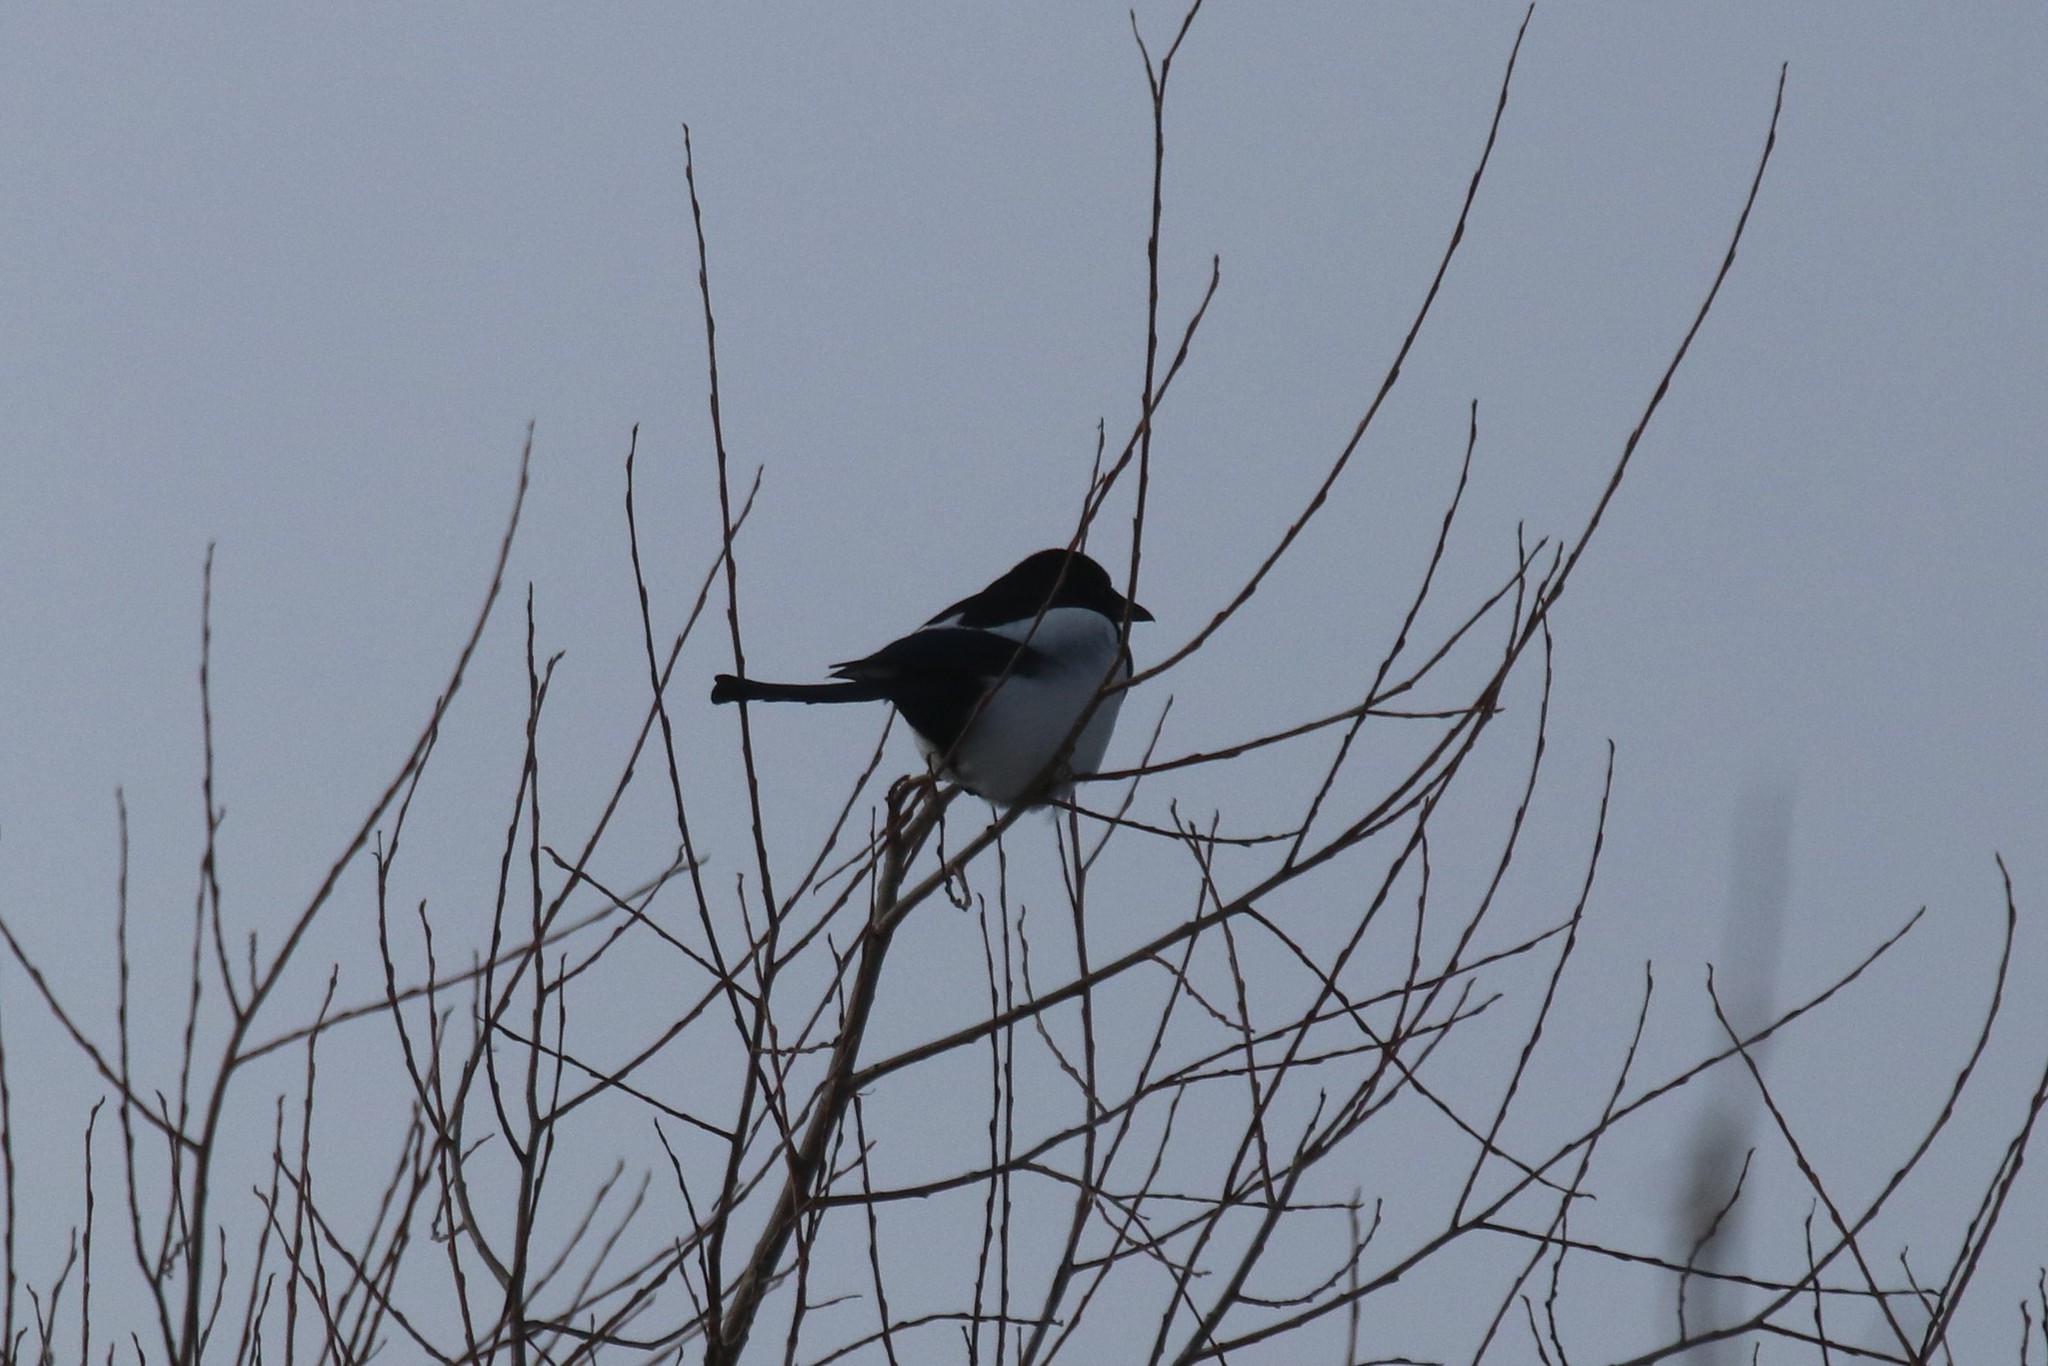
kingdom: Animalia
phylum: Chordata
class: Aves
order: Passeriformes
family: Corvidae
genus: Pica
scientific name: Pica pica
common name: Eurasian magpie
